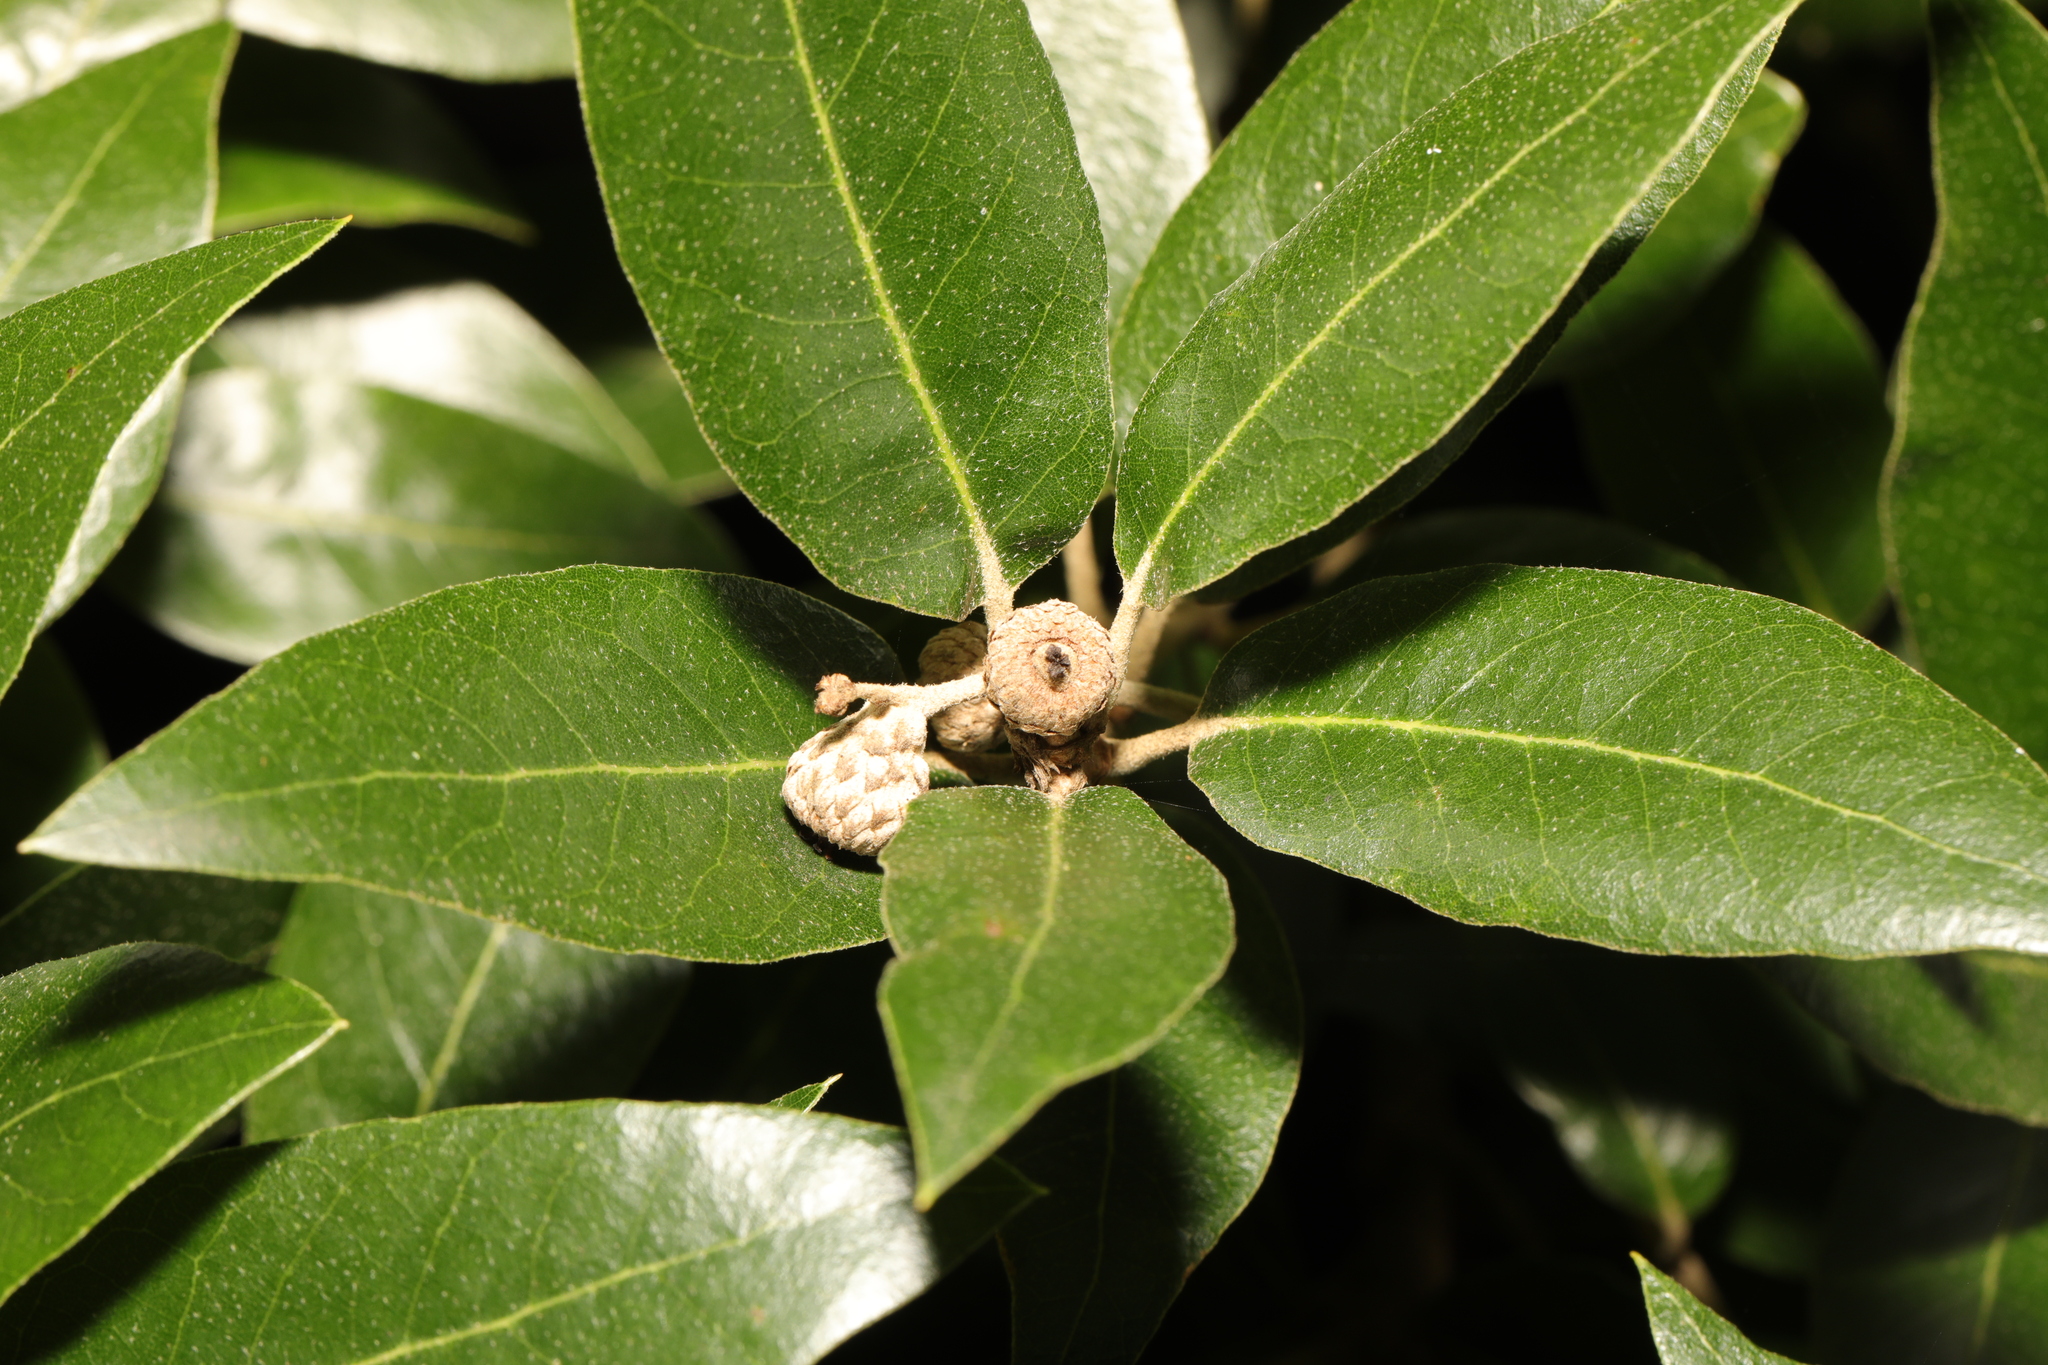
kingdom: Plantae
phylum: Tracheophyta
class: Magnoliopsida
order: Fagales
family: Fagaceae
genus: Quercus
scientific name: Quercus ilex
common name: Evergreen oak
